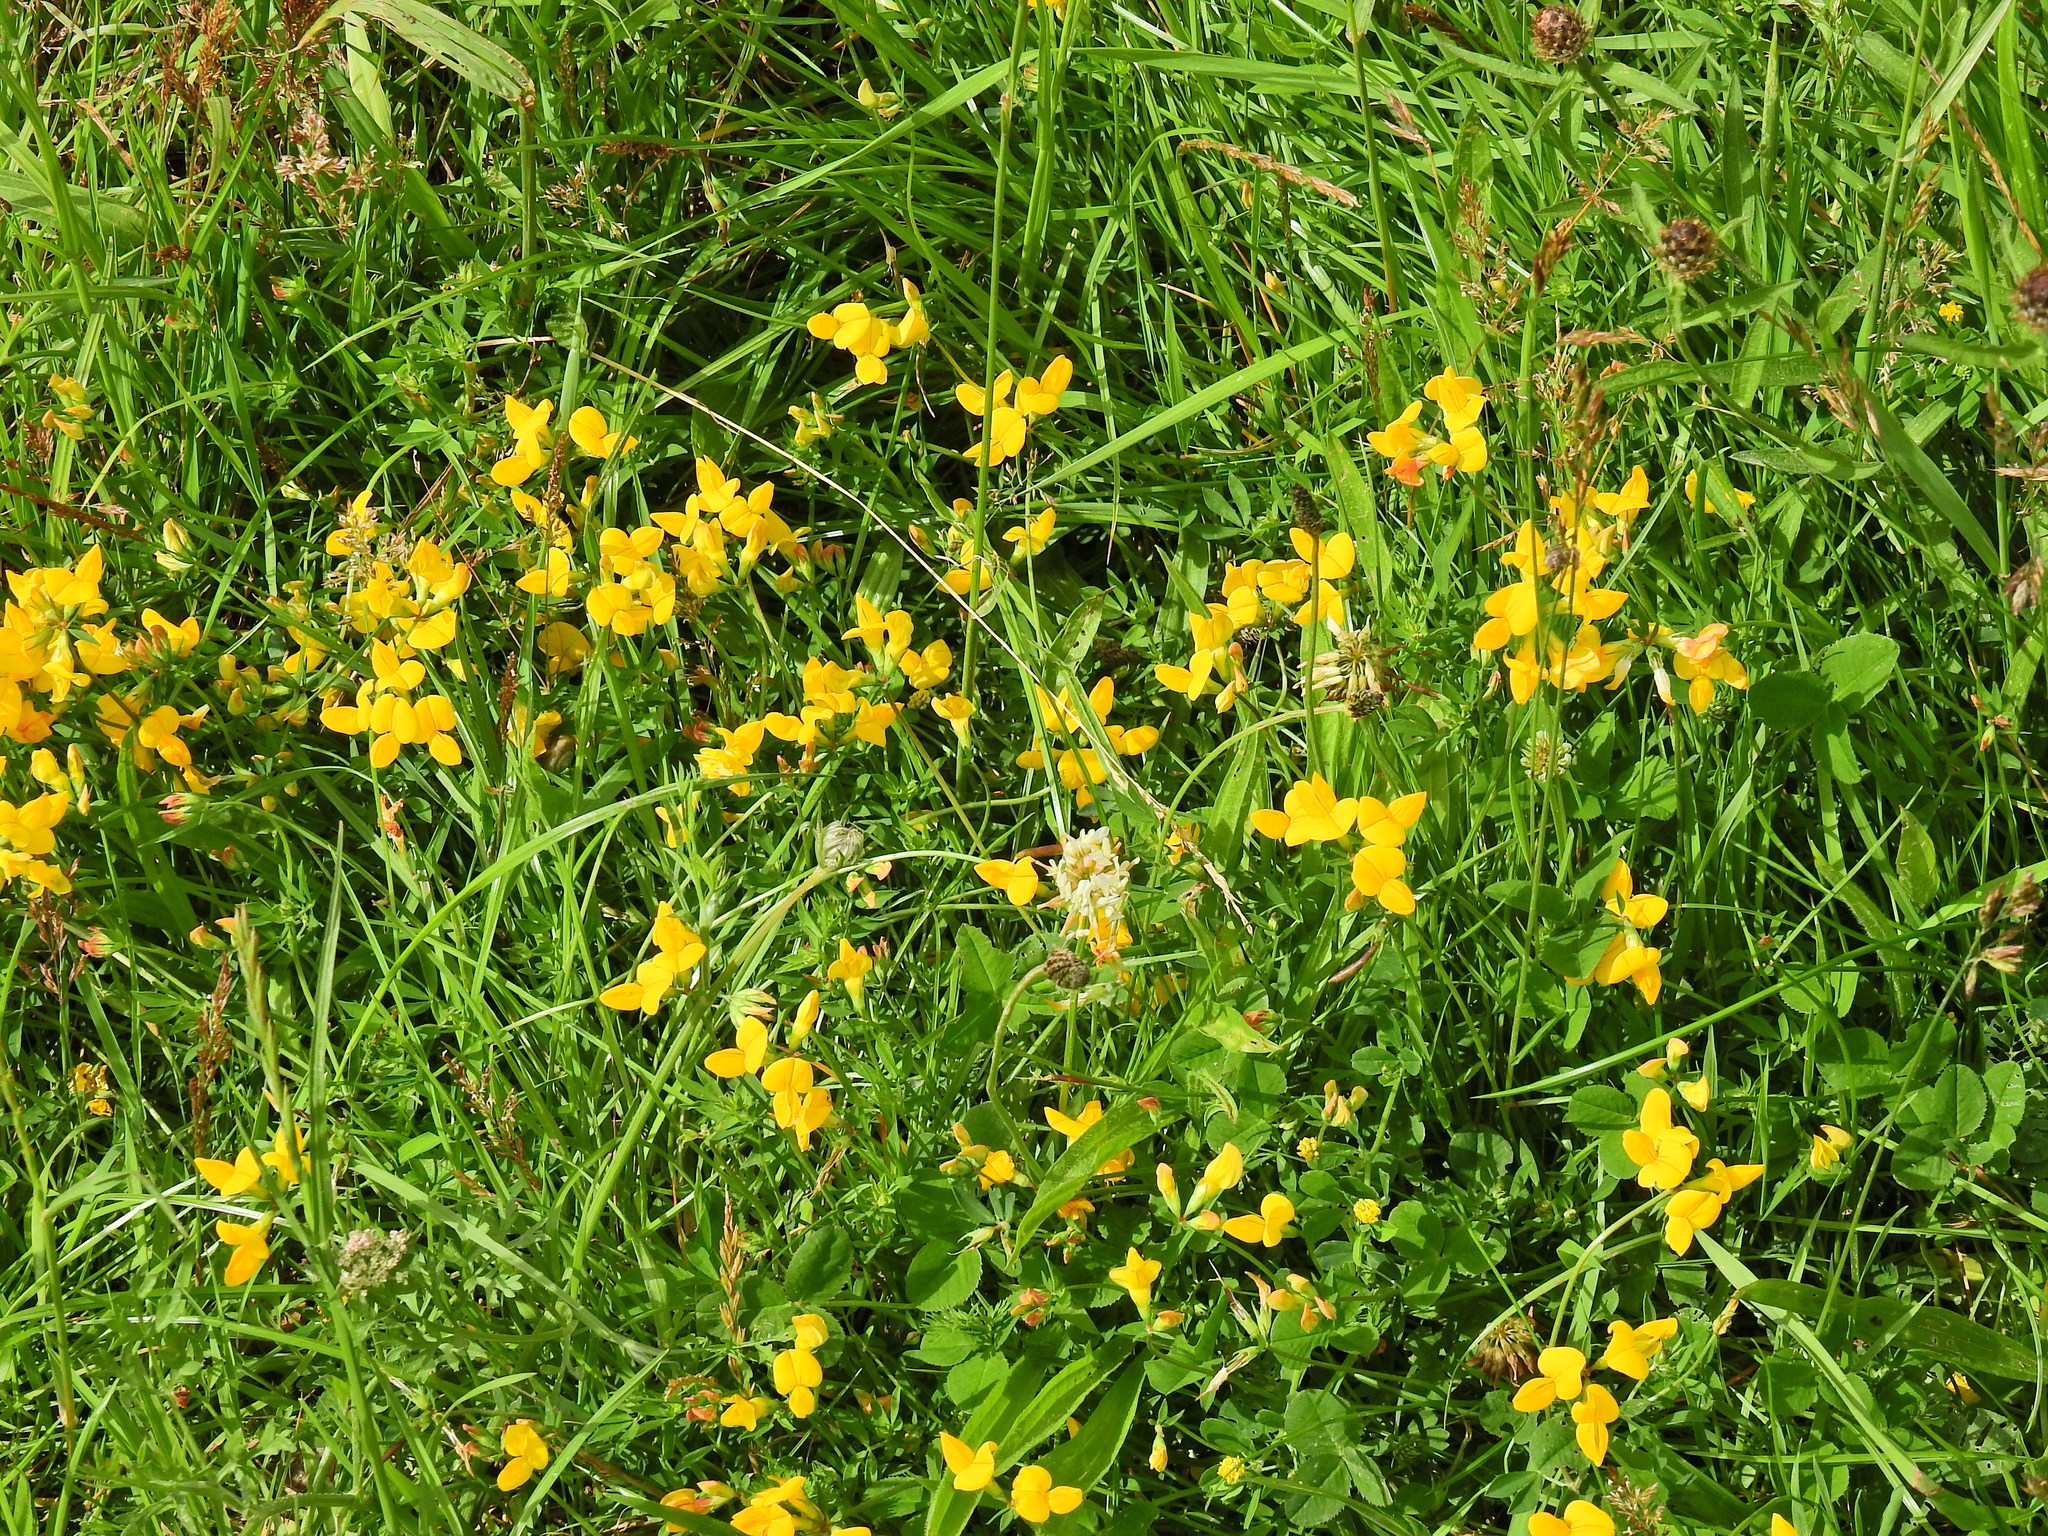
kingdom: Plantae
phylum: Tracheophyta
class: Magnoliopsida
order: Fabales
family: Fabaceae
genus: Lotus
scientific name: Lotus corniculatus
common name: Common bird's-foot-trefoil
